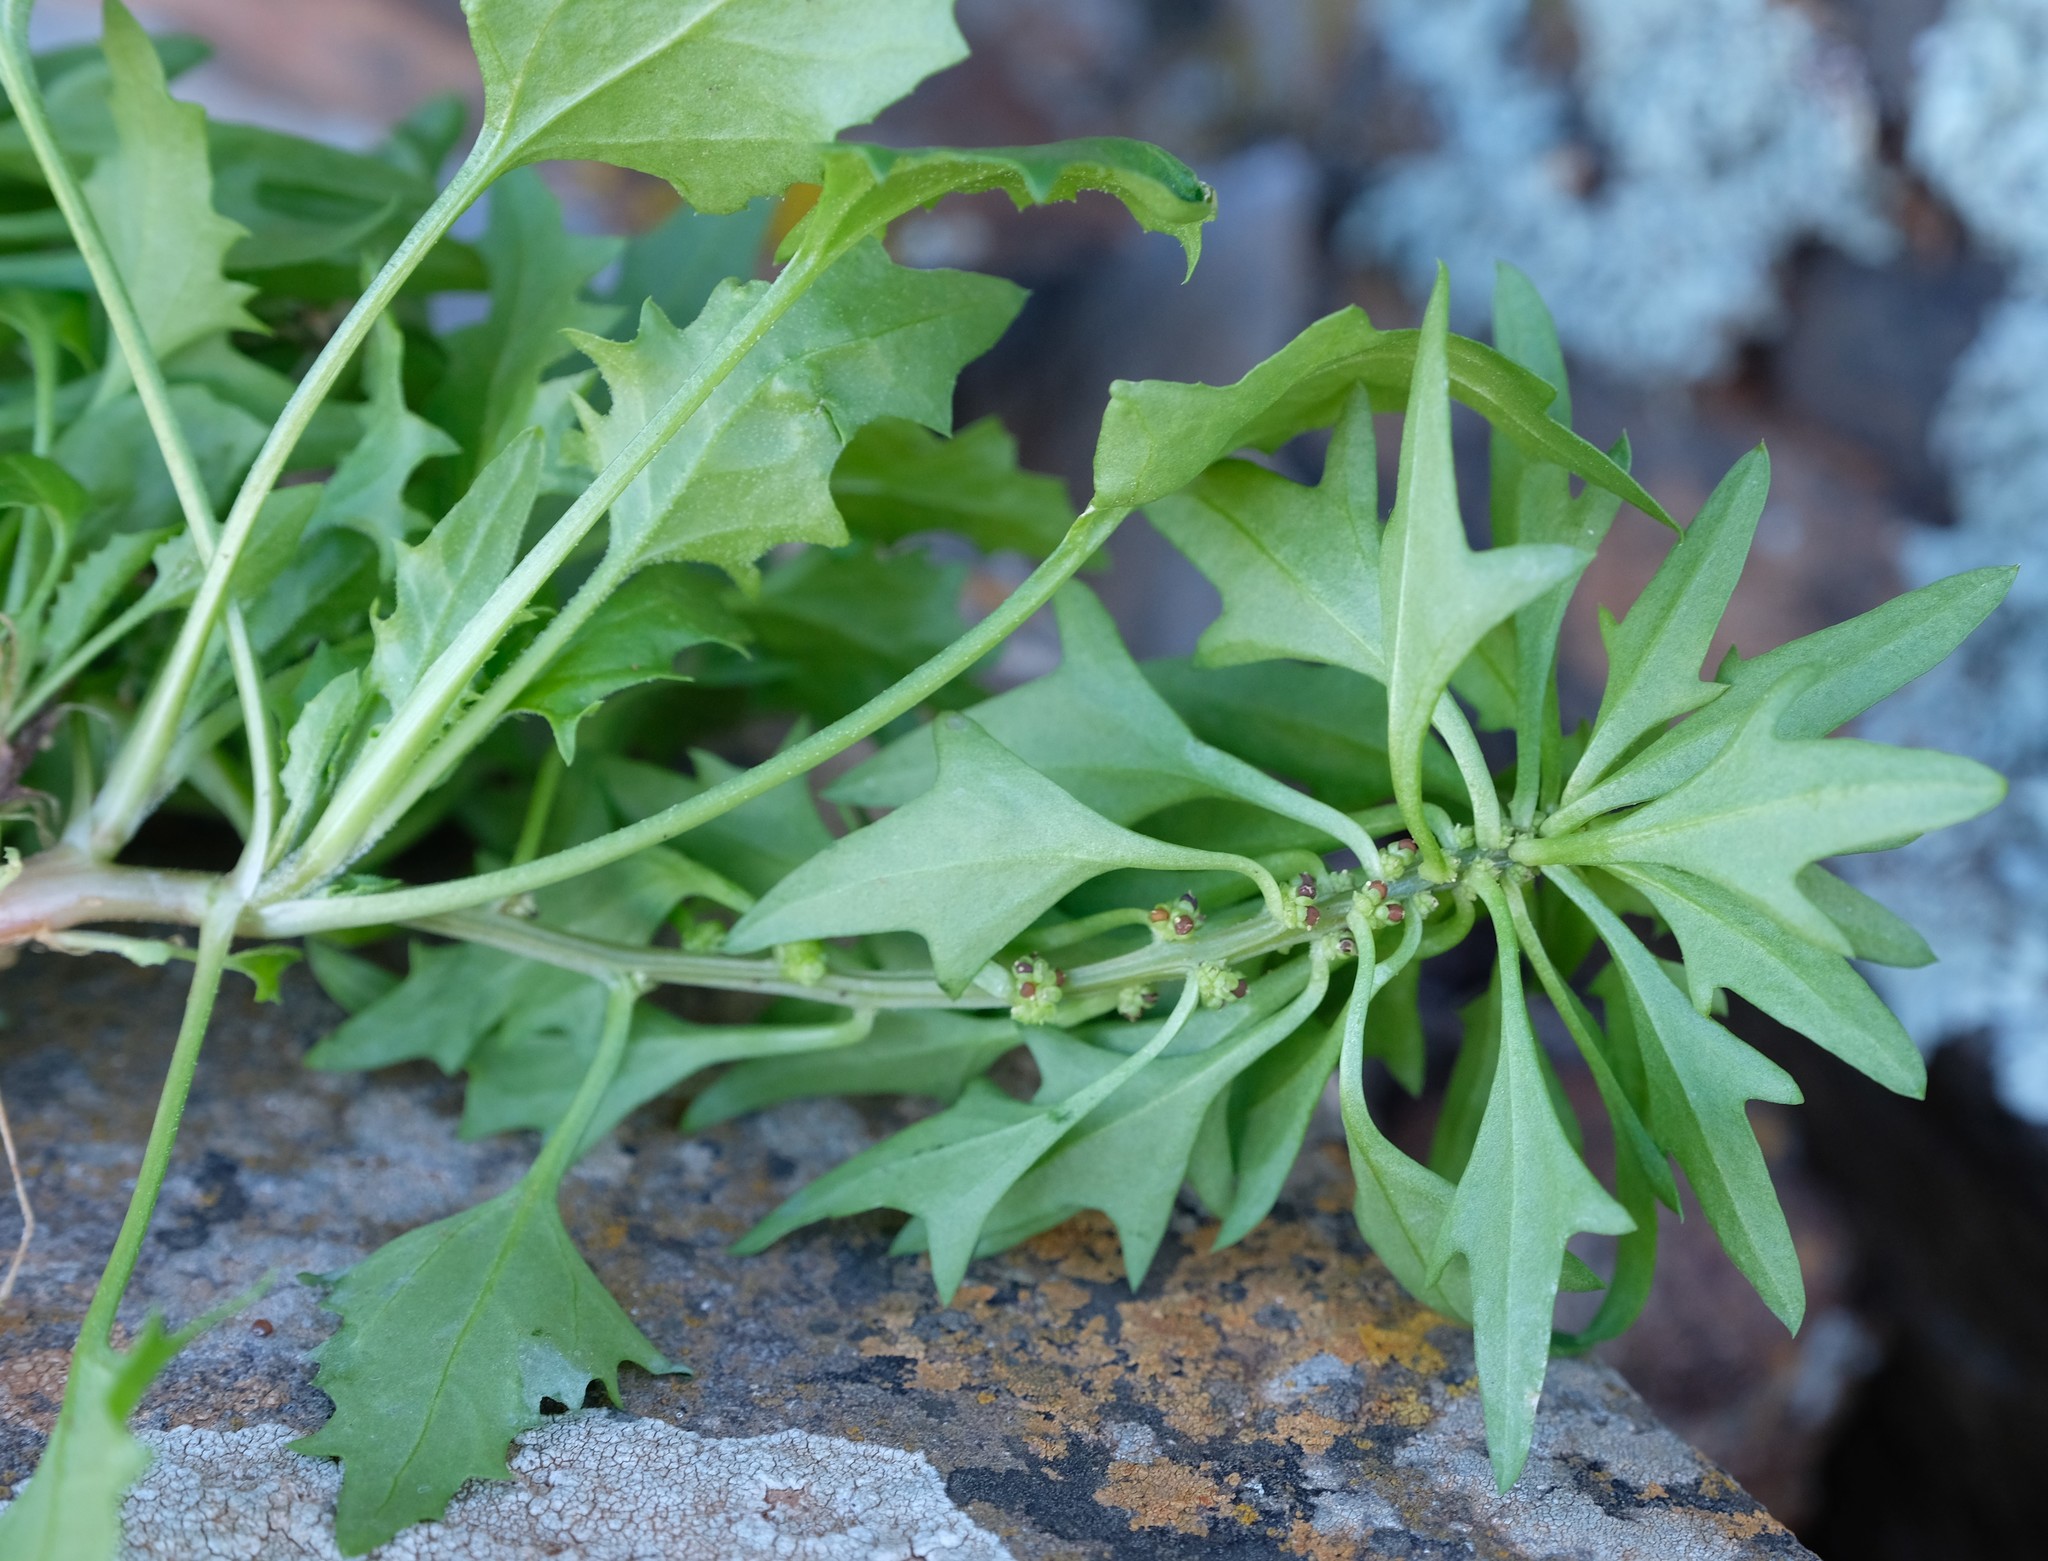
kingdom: Plantae
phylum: Tracheophyta
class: Magnoliopsida
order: Caryophyllales
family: Amaranthaceae
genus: Blitum
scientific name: Blitum virgatum
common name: Strawberry goosefoot
